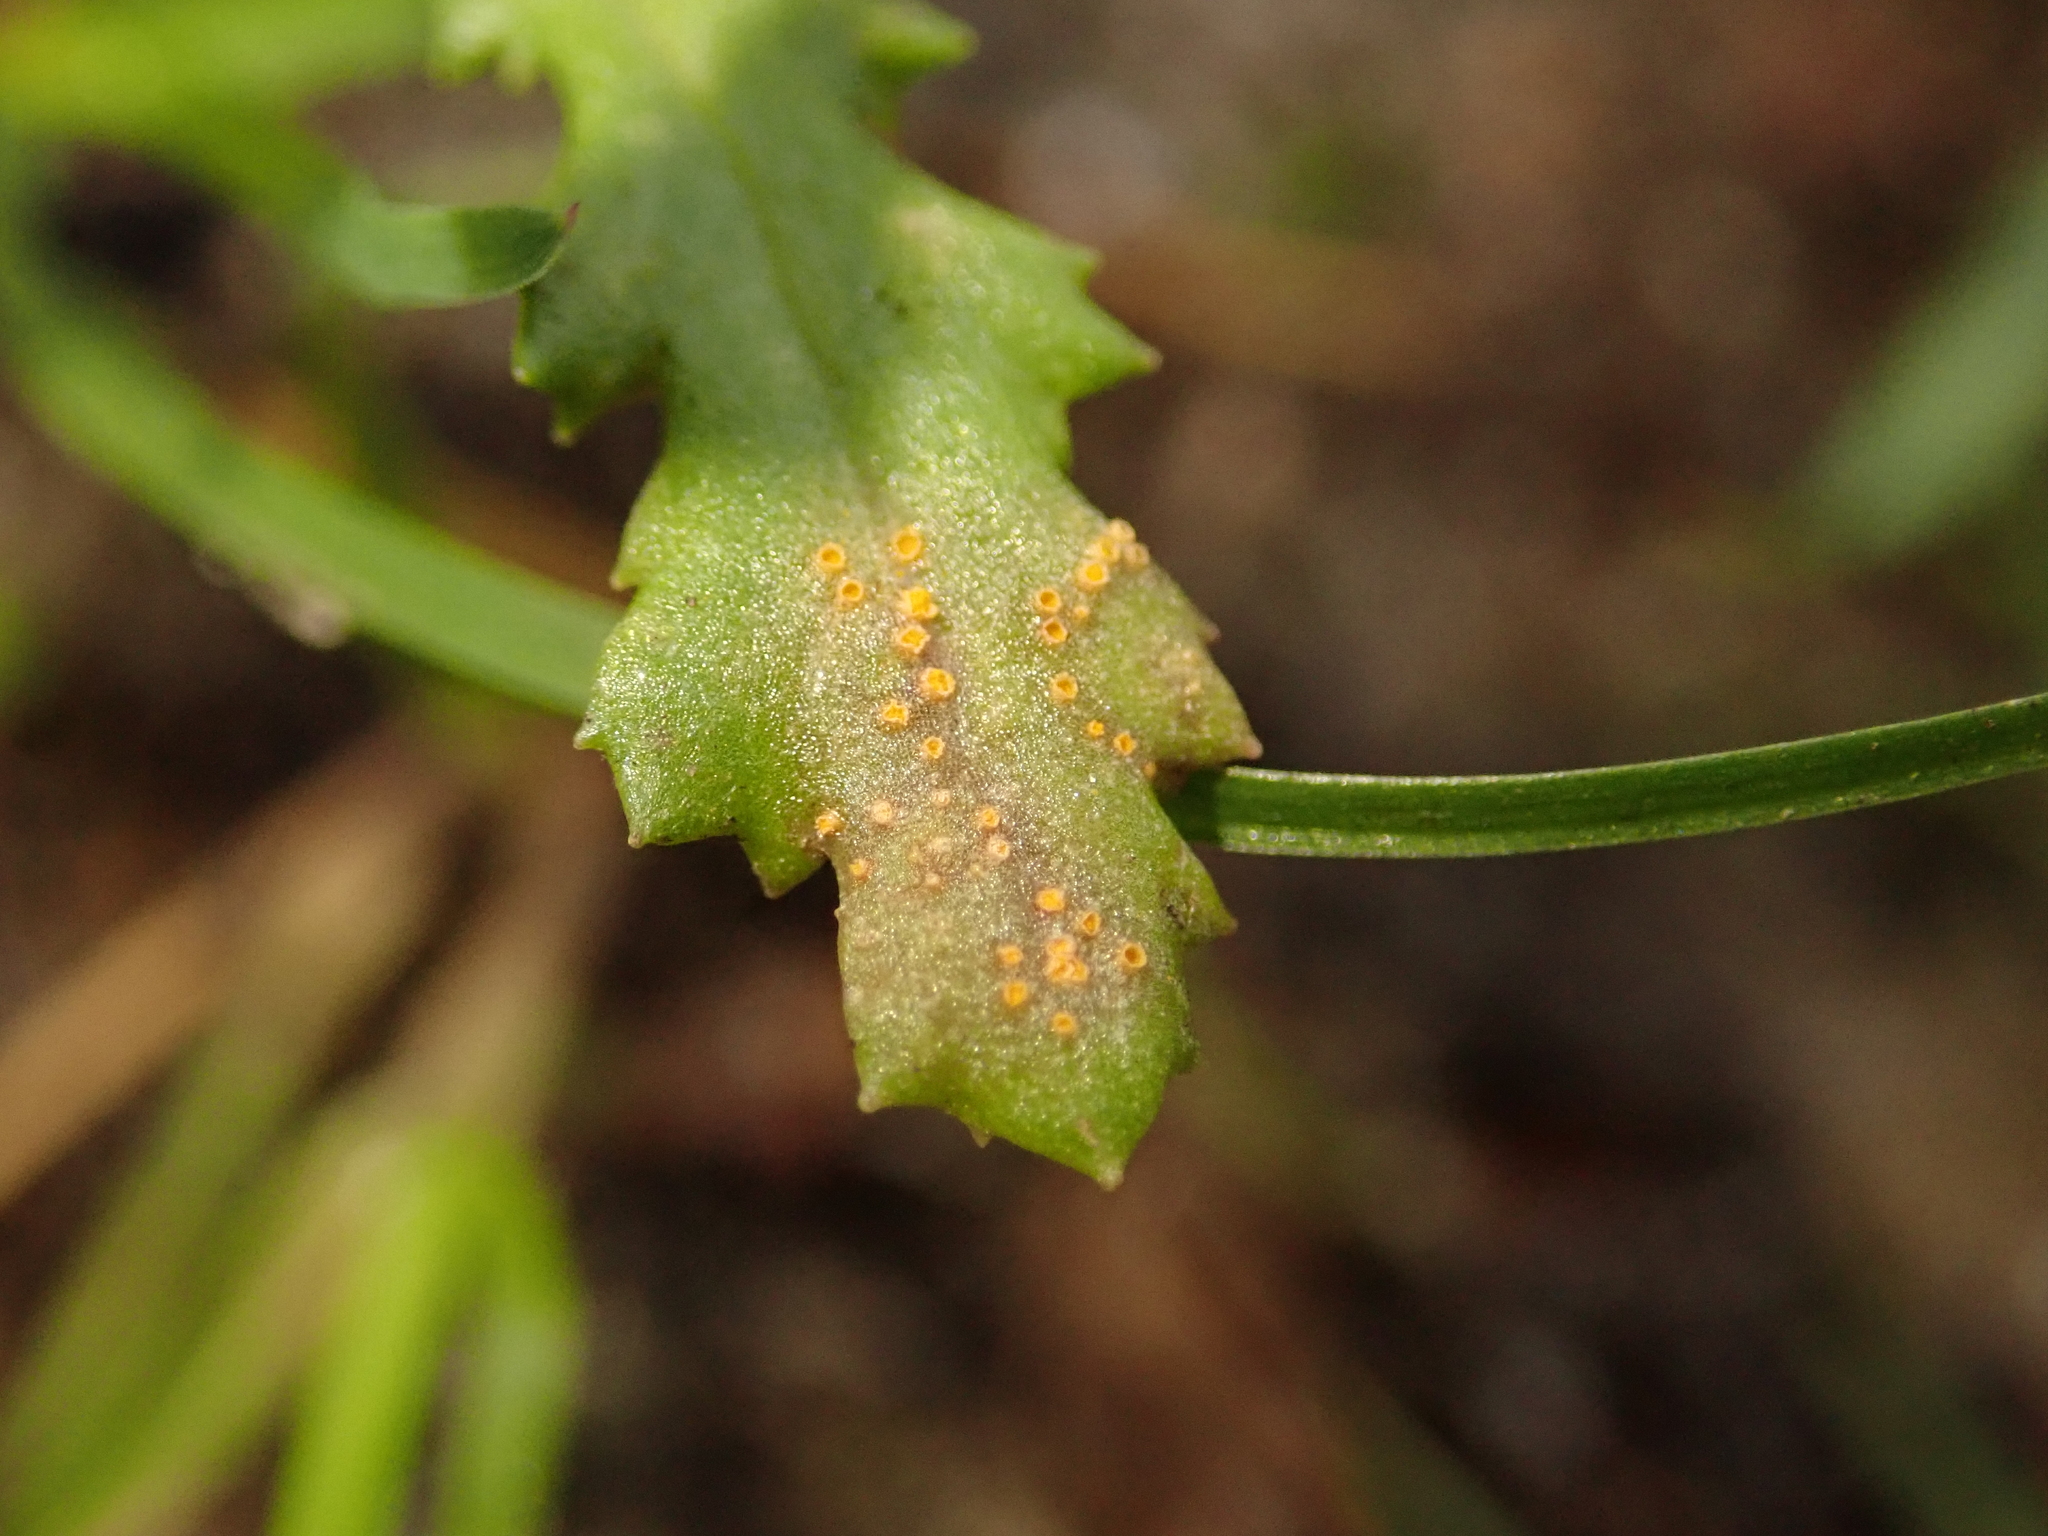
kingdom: Fungi
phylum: Basidiomycota
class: Pucciniomycetes
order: Pucciniales
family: Pucciniaceae
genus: Puccinia
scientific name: Puccinia lagenophorae
